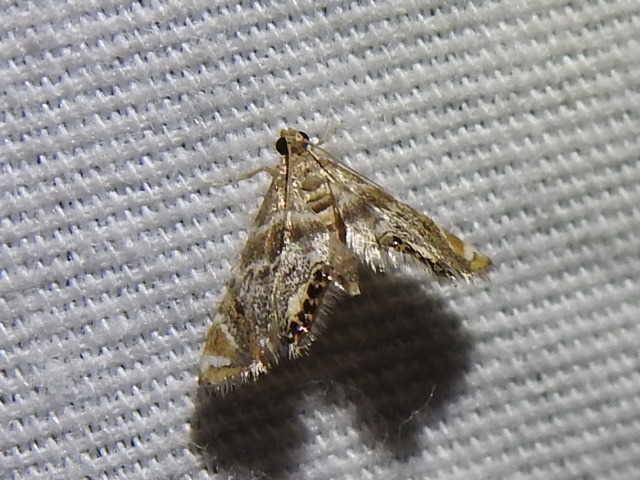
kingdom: Animalia
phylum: Arthropoda
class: Insecta
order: Lepidoptera
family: Crambidae
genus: Petrophila
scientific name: Petrophila fulicalis
